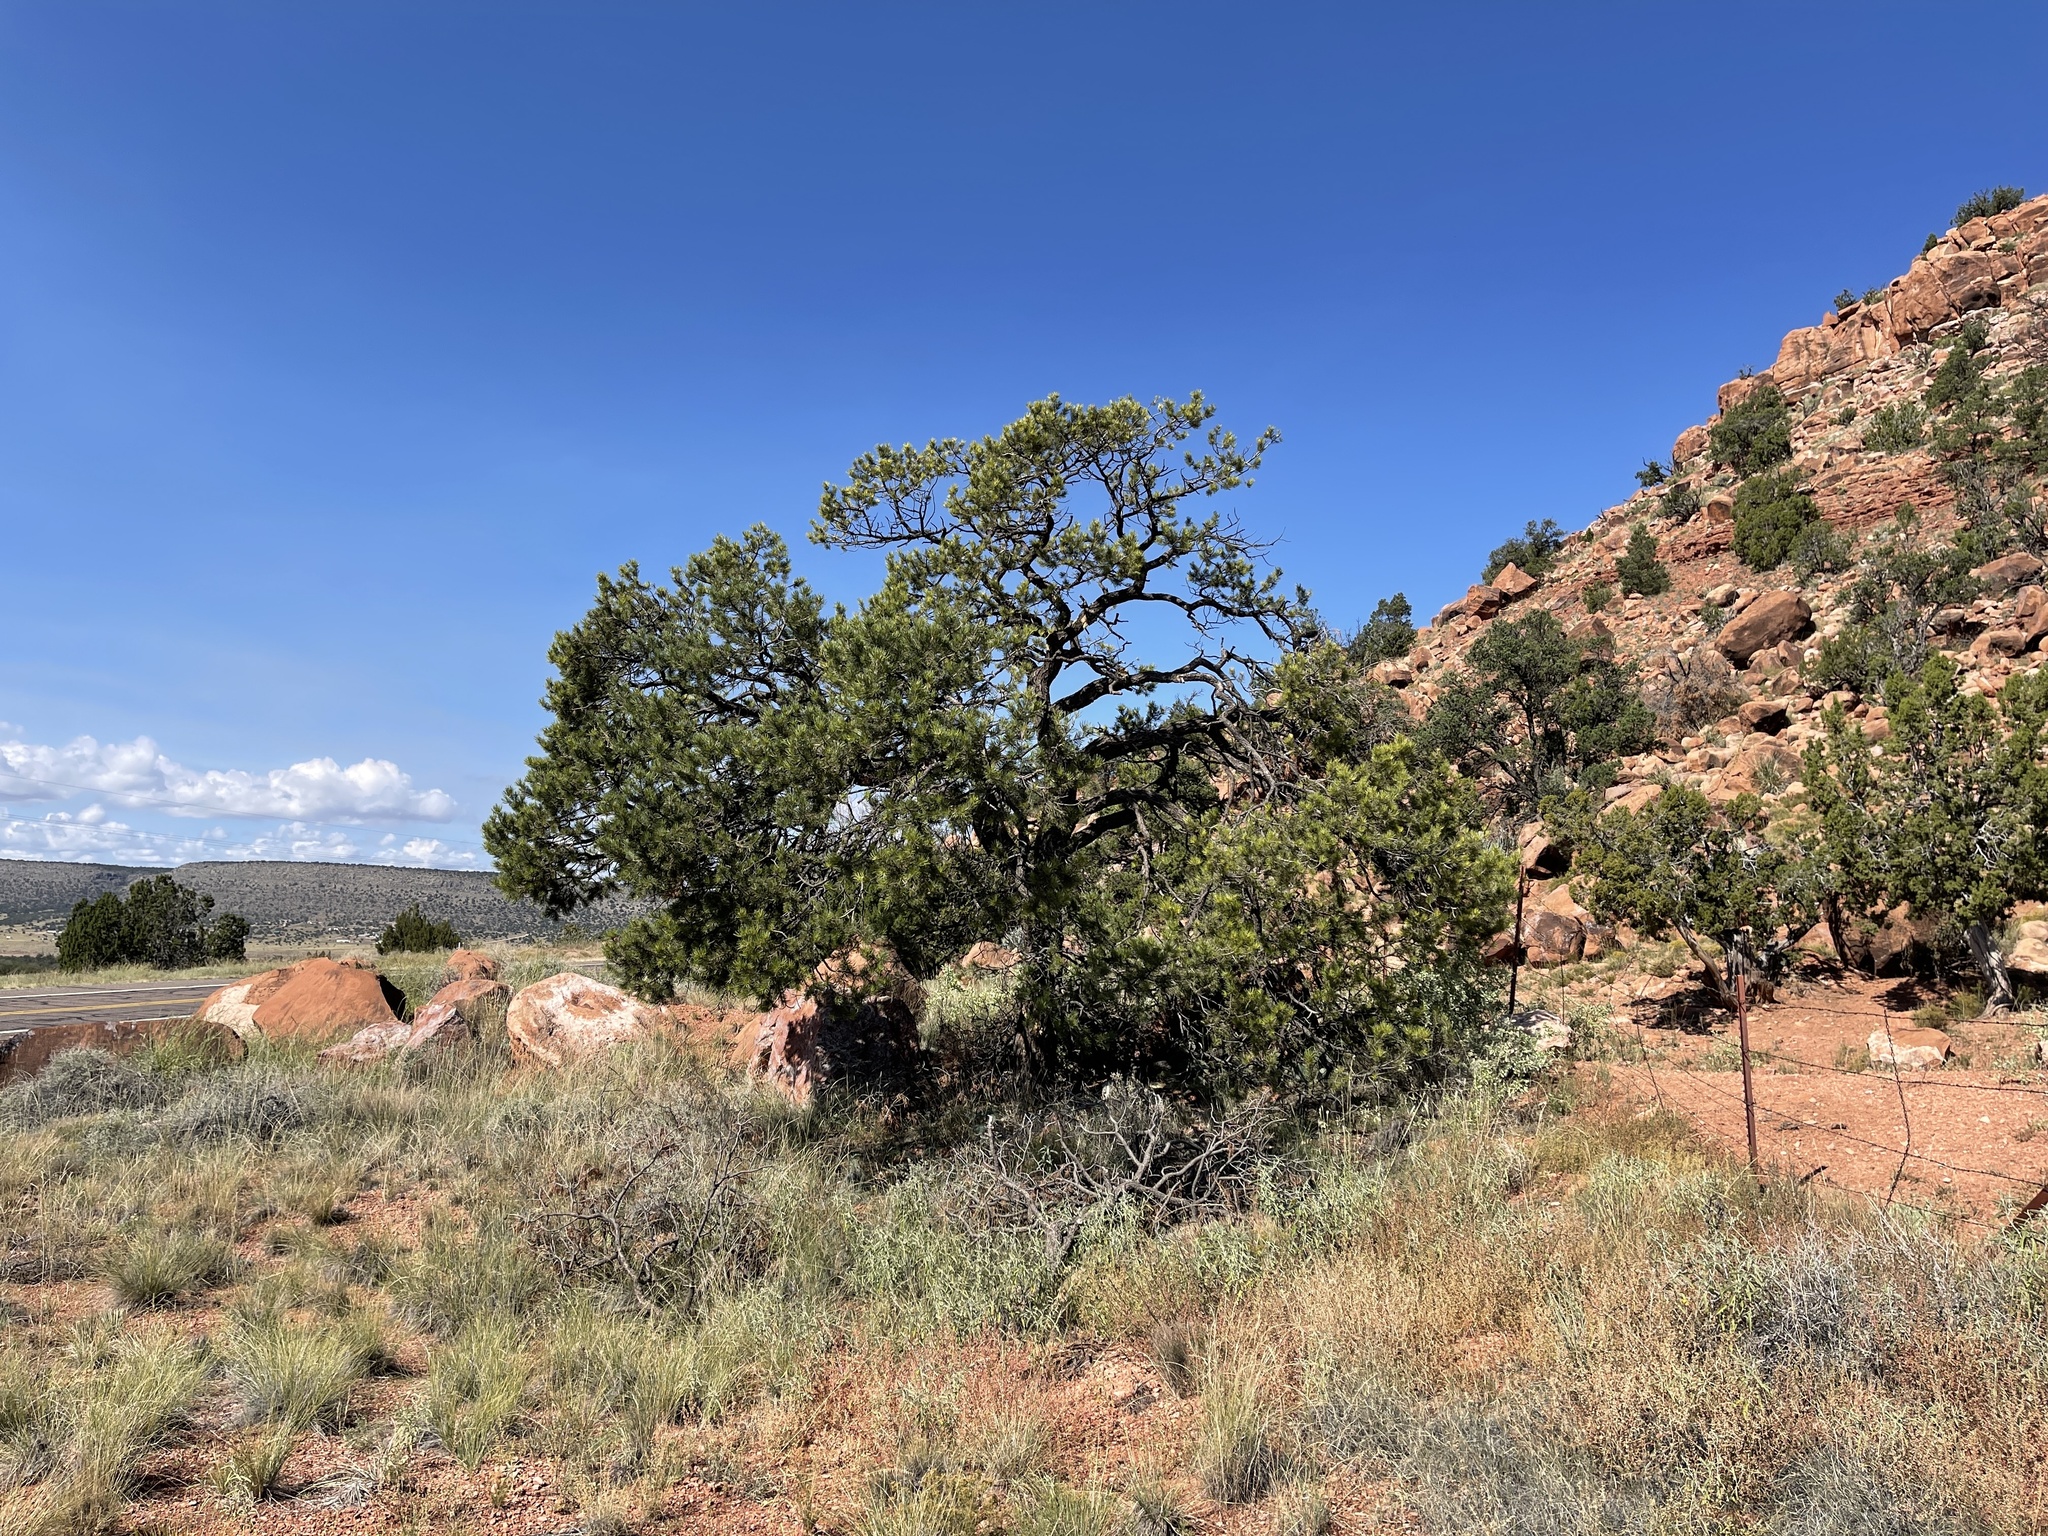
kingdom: Plantae
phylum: Tracheophyta
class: Pinopsida
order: Pinales
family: Pinaceae
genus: Pinus
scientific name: Pinus edulis
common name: Colorado pinyon
